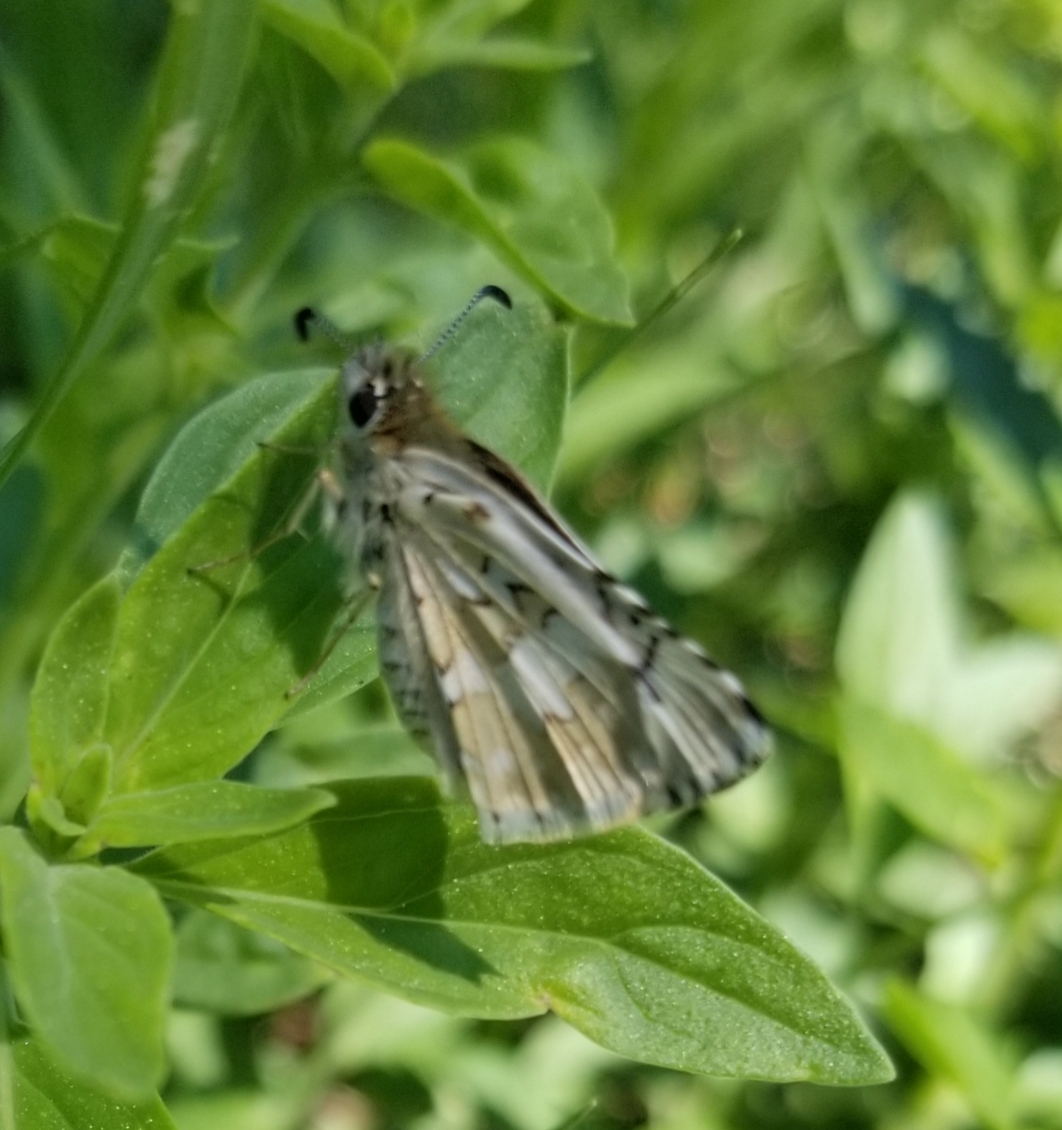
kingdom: Animalia
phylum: Arthropoda
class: Insecta
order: Lepidoptera
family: Hesperiidae
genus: Burnsius
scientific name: Burnsius communis
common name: Common checkered-skipper
